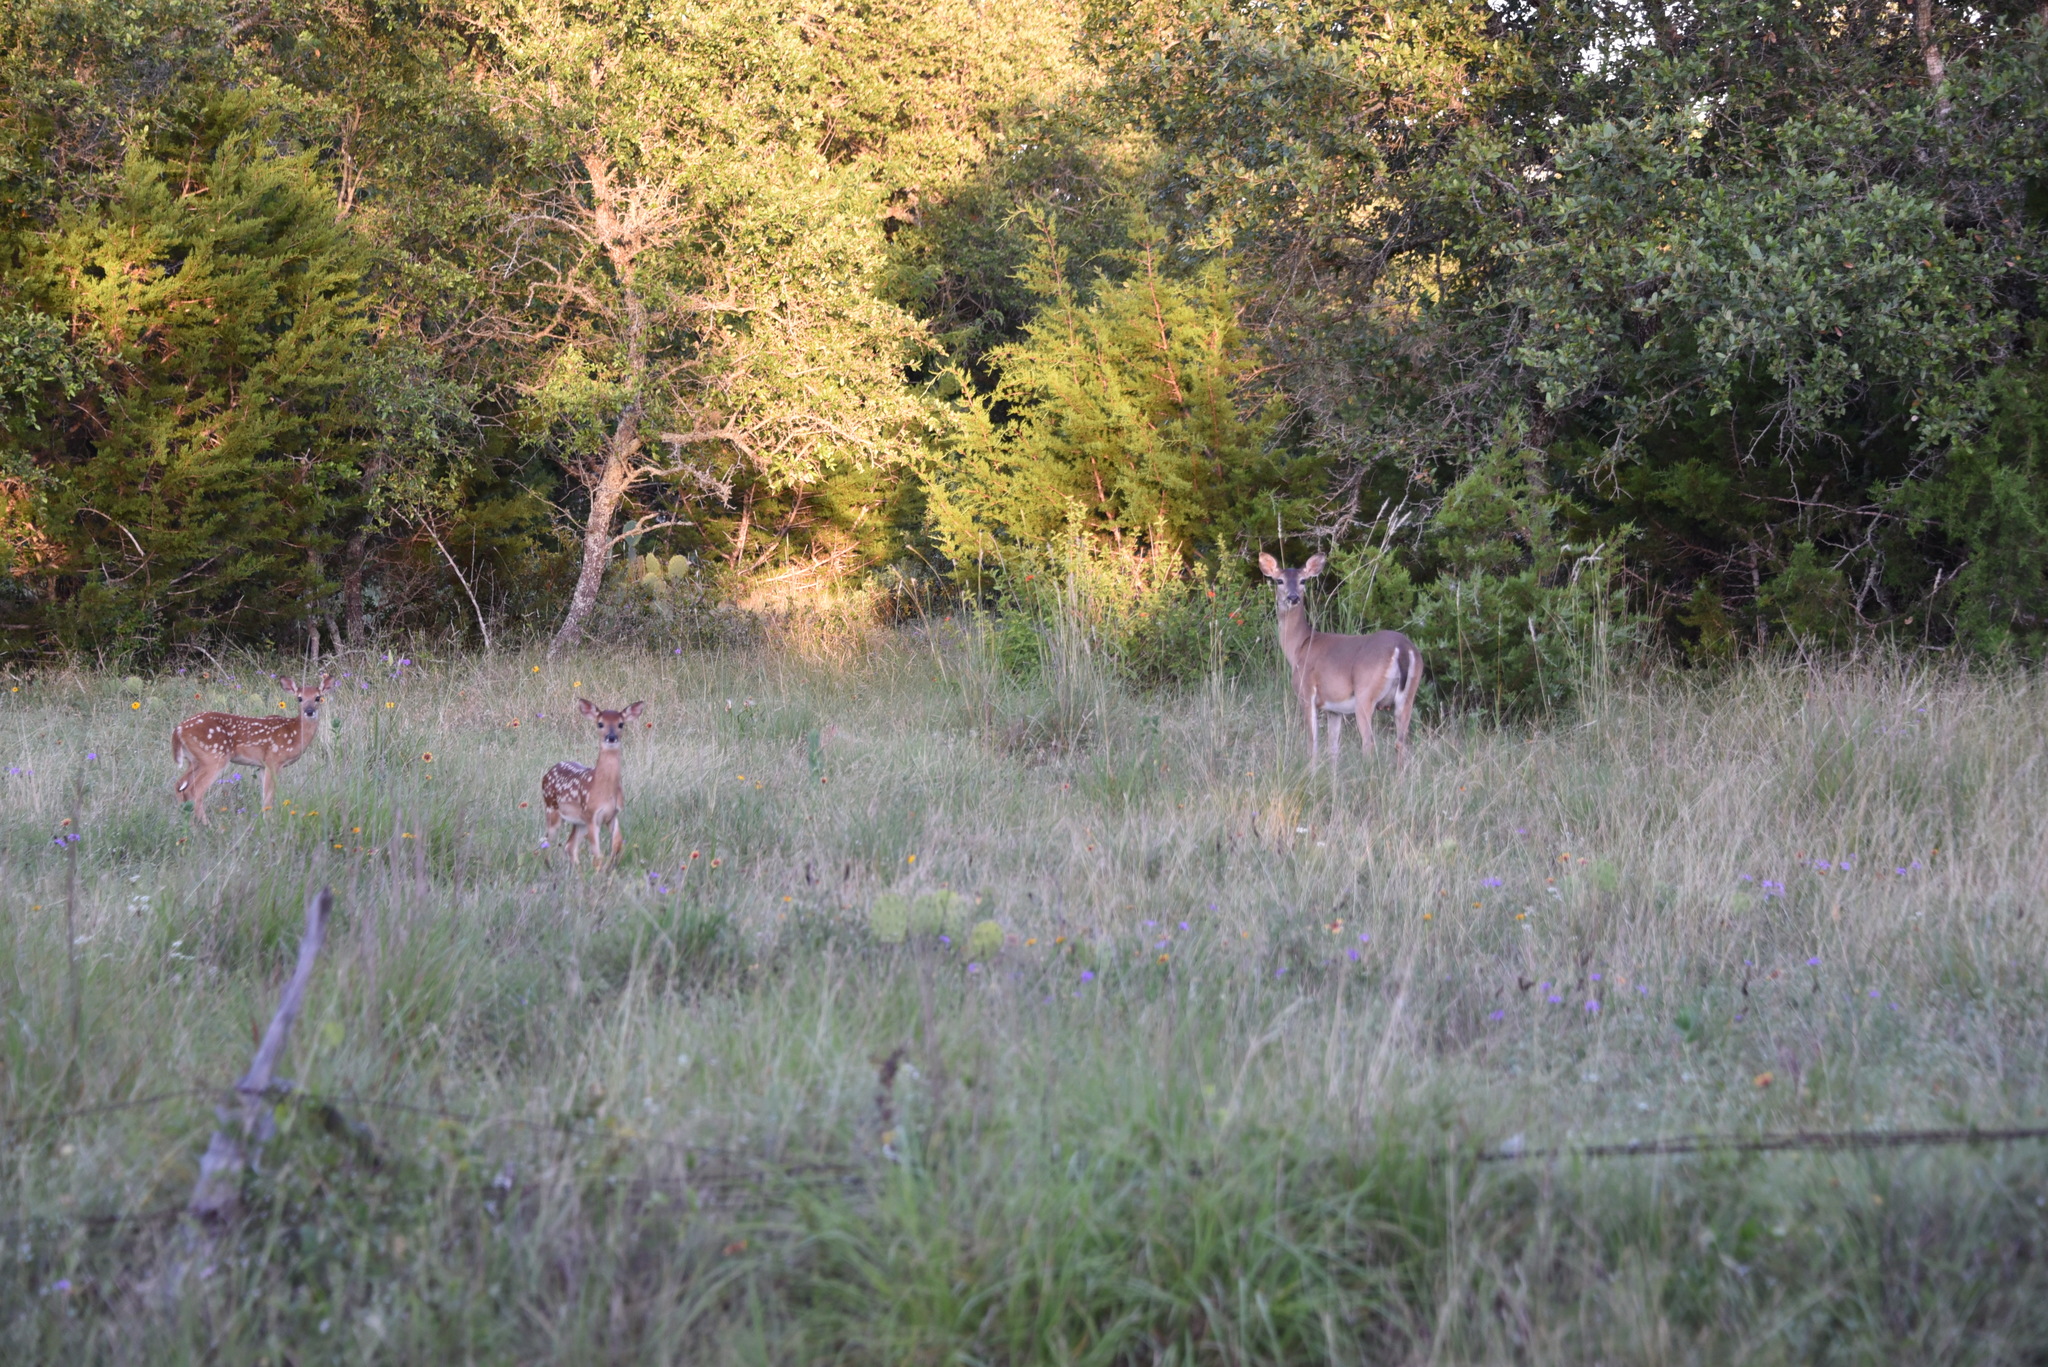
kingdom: Animalia
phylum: Chordata
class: Mammalia
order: Artiodactyla
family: Cervidae
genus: Odocoileus
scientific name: Odocoileus virginianus
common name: White-tailed deer
